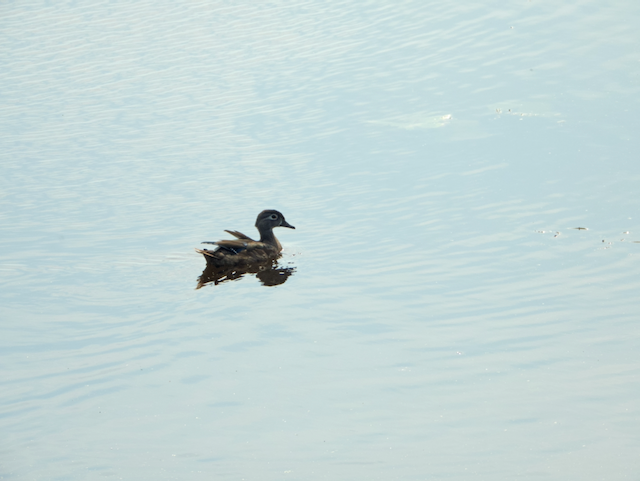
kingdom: Animalia
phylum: Chordata
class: Aves
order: Anseriformes
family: Anatidae
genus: Aix
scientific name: Aix sponsa
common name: Wood duck
